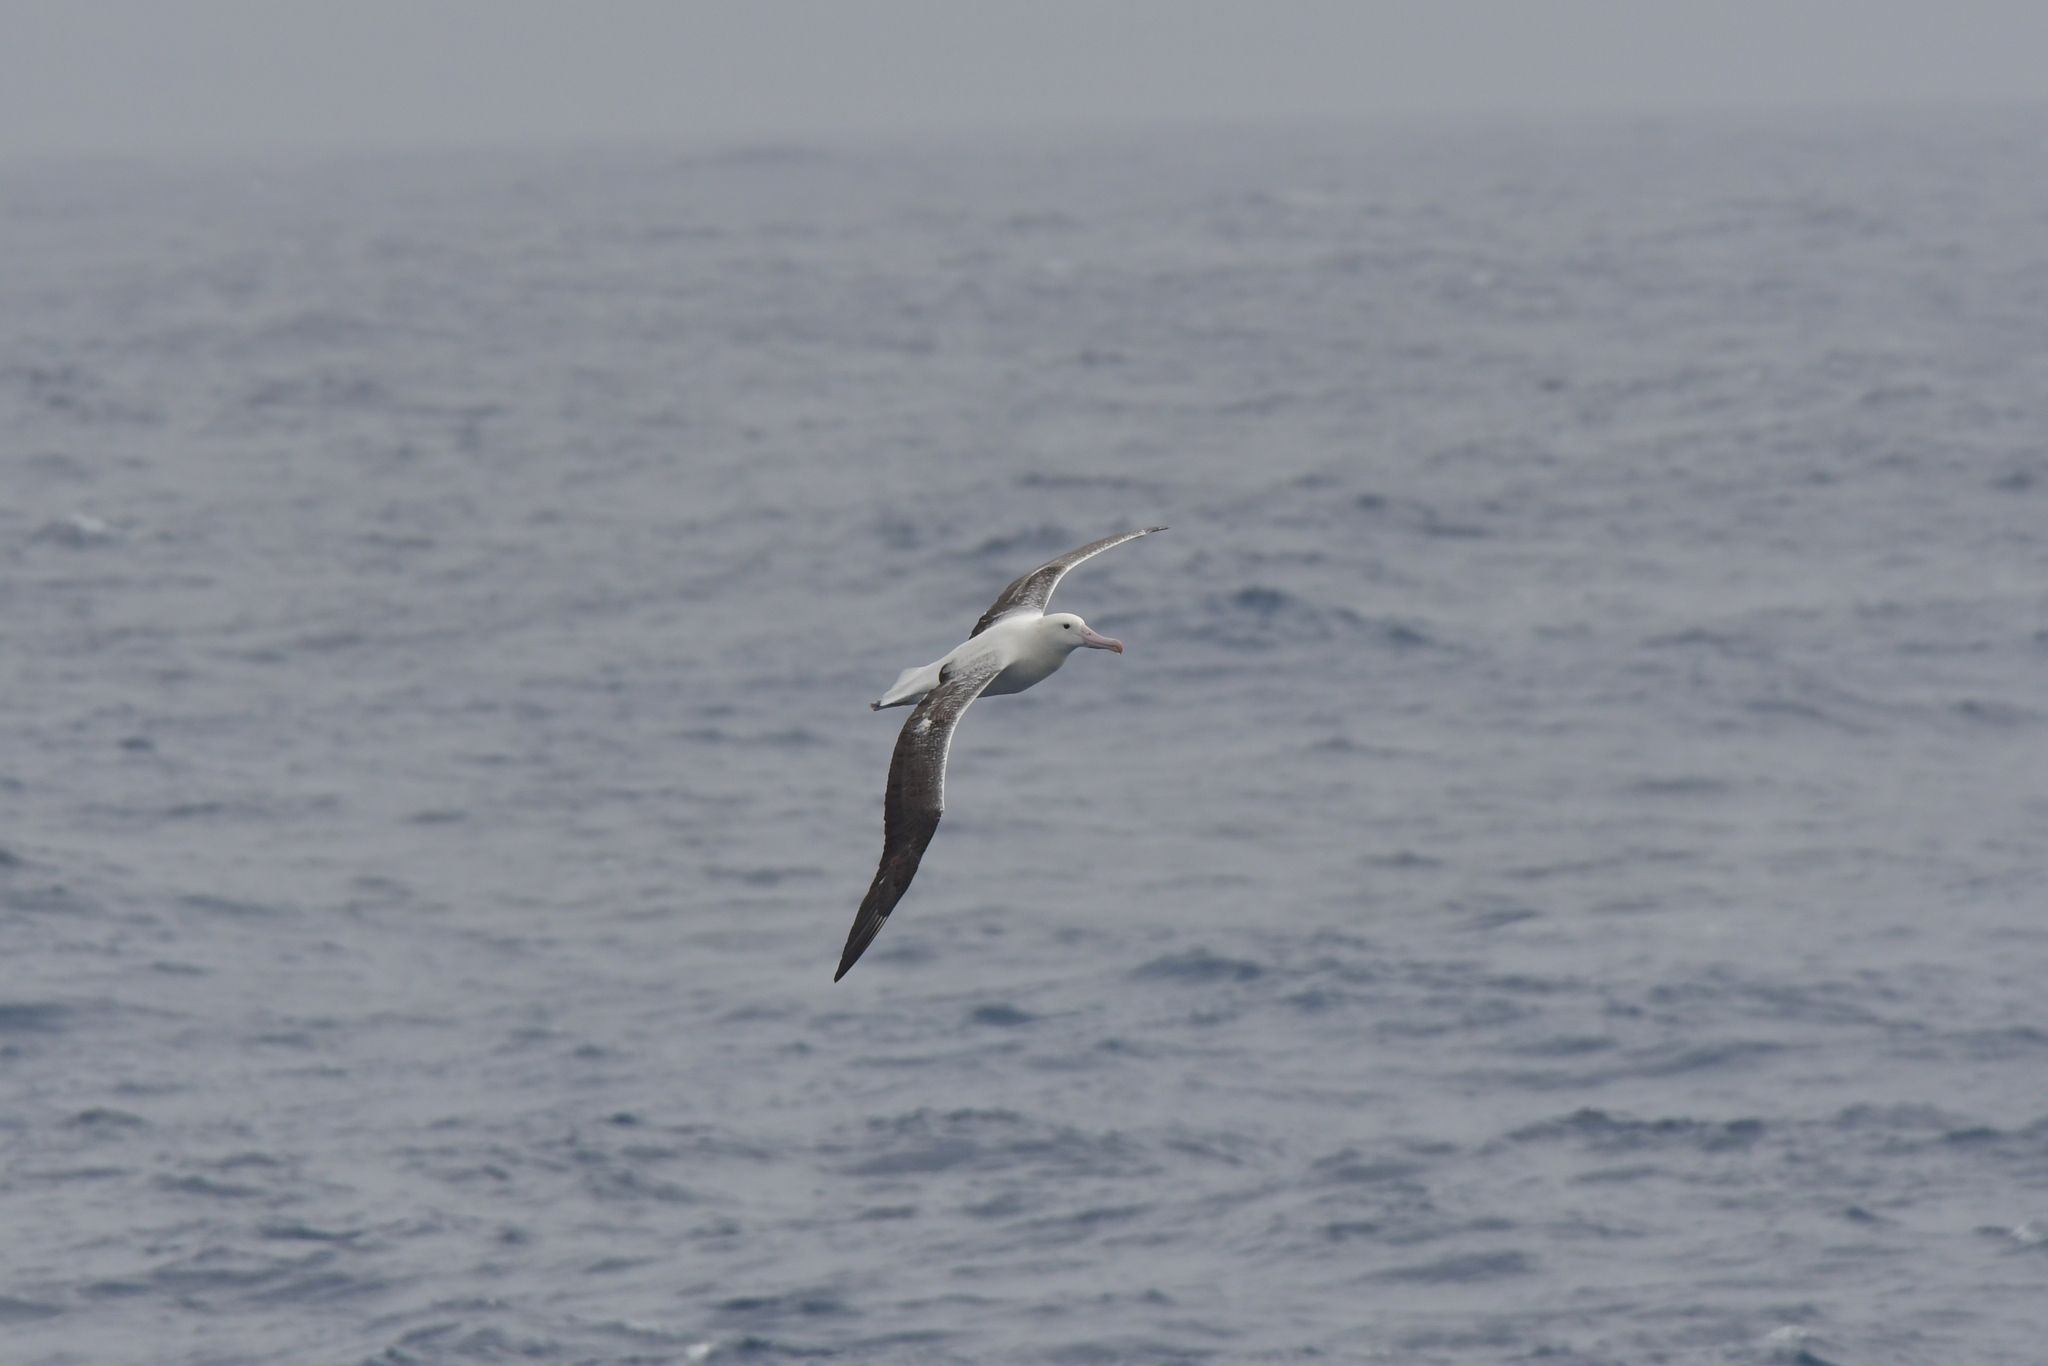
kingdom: Animalia
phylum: Chordata
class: Aves
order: Procellariiformes
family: Diomedeidae
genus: Diomedea
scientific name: Diomedea epomophora
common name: Southern royal albatross
